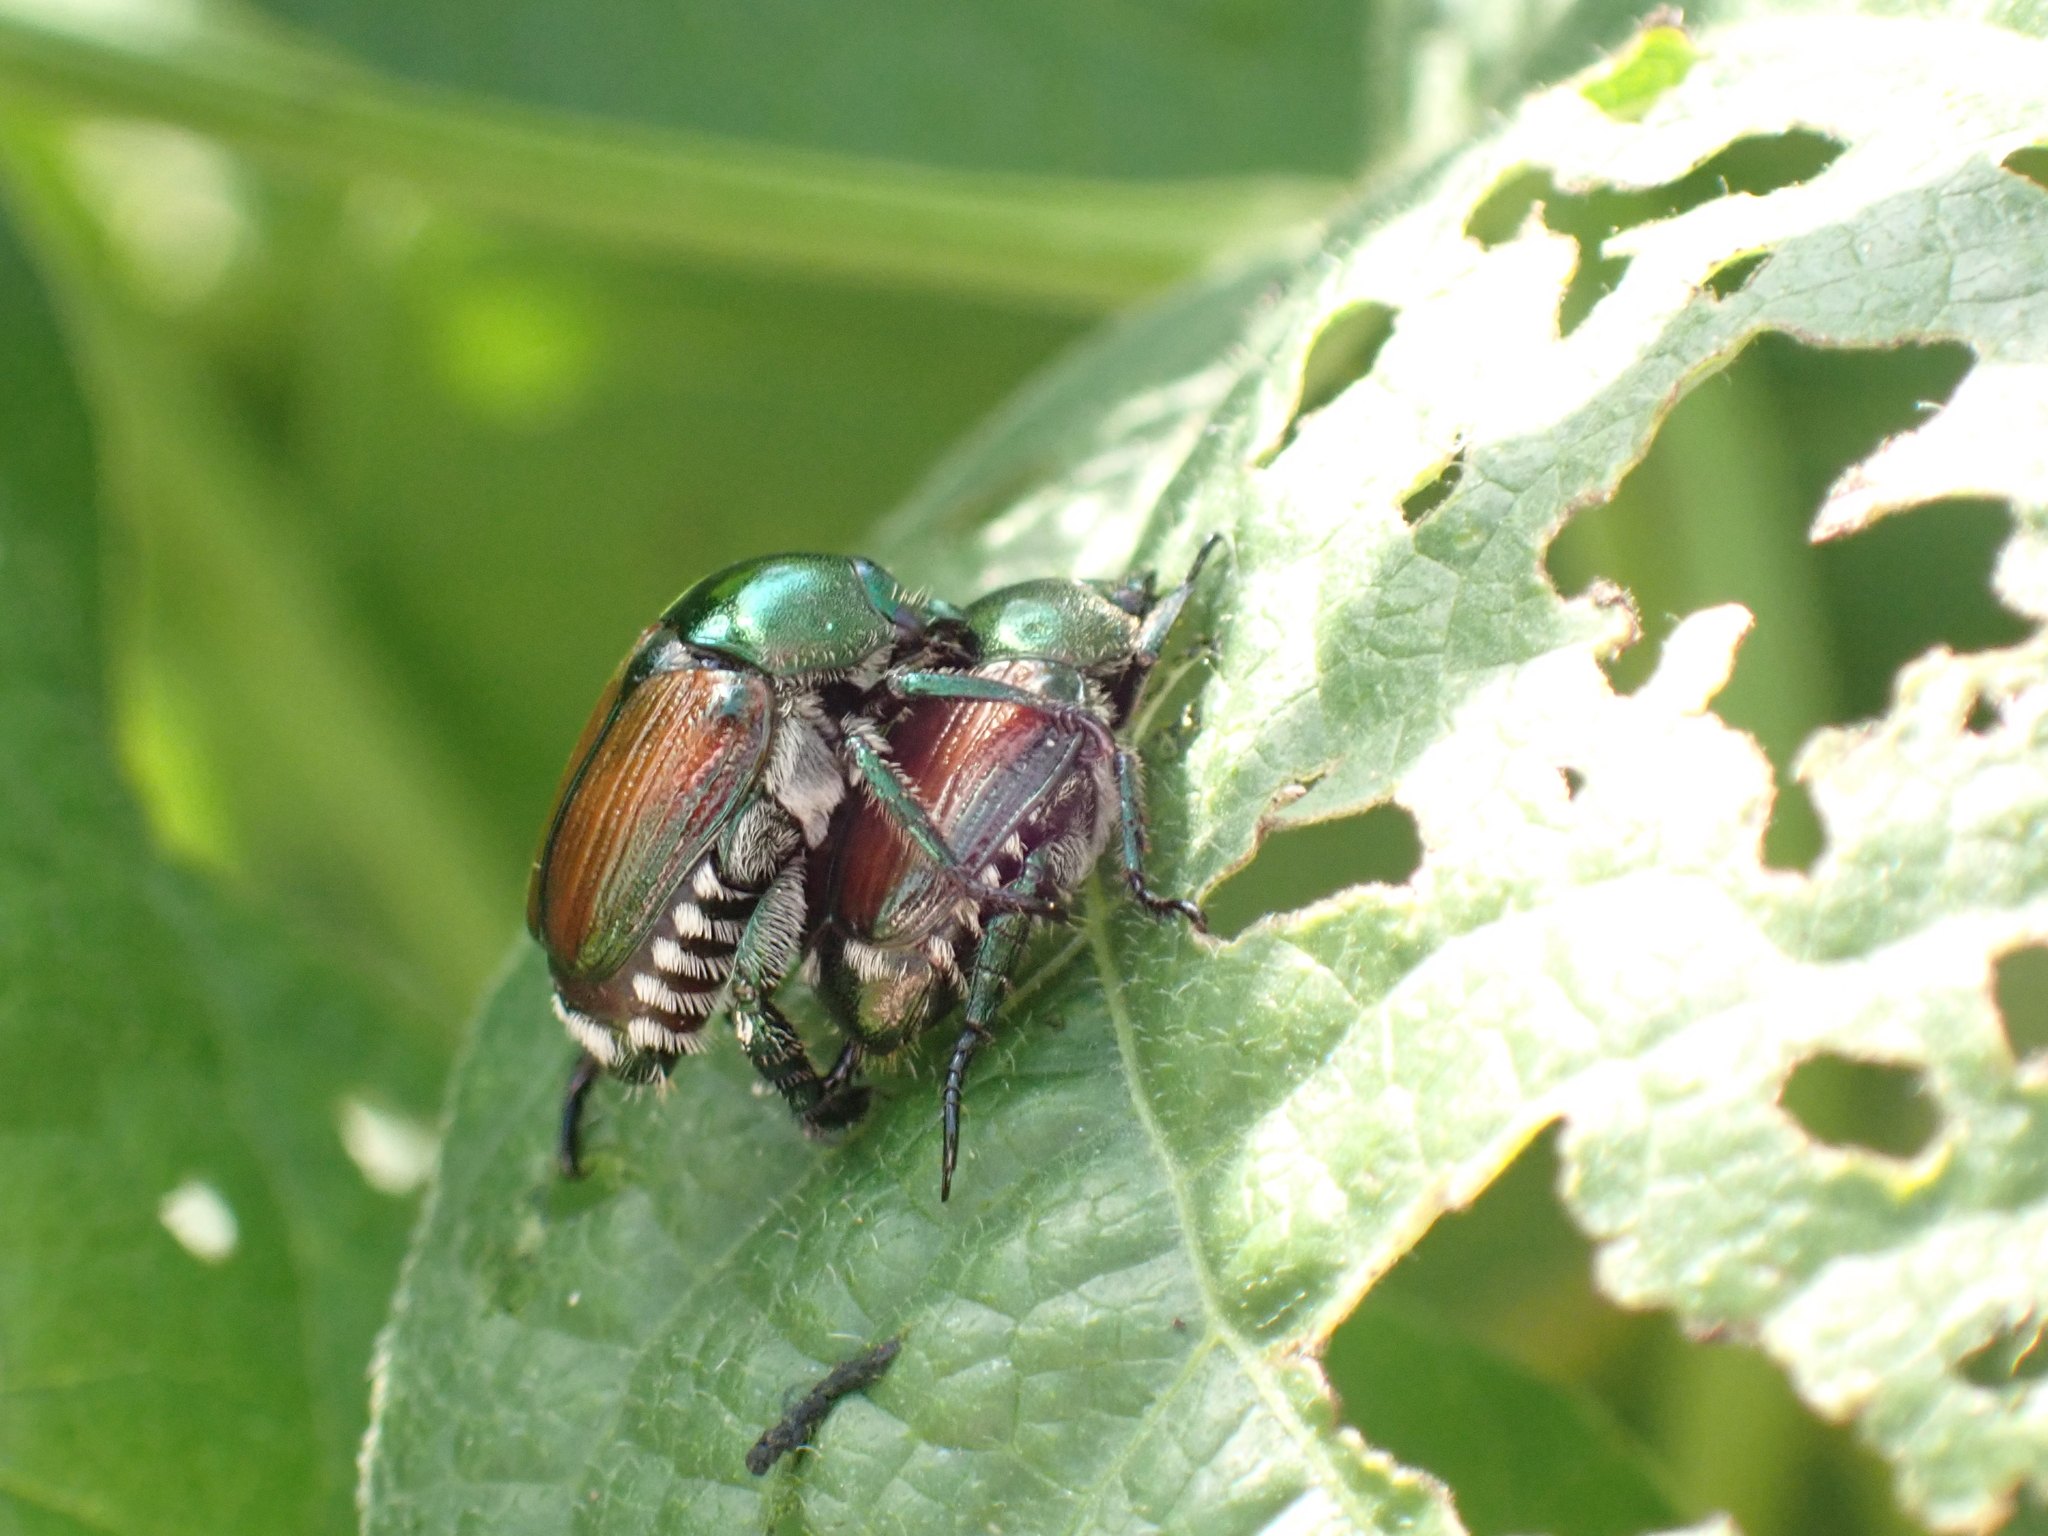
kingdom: Animalia
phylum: Arthropoda
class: Insecta
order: Coleoptera
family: Scarabaeidae
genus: Popillia
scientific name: Popillia japonica
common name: Japanese beetle
